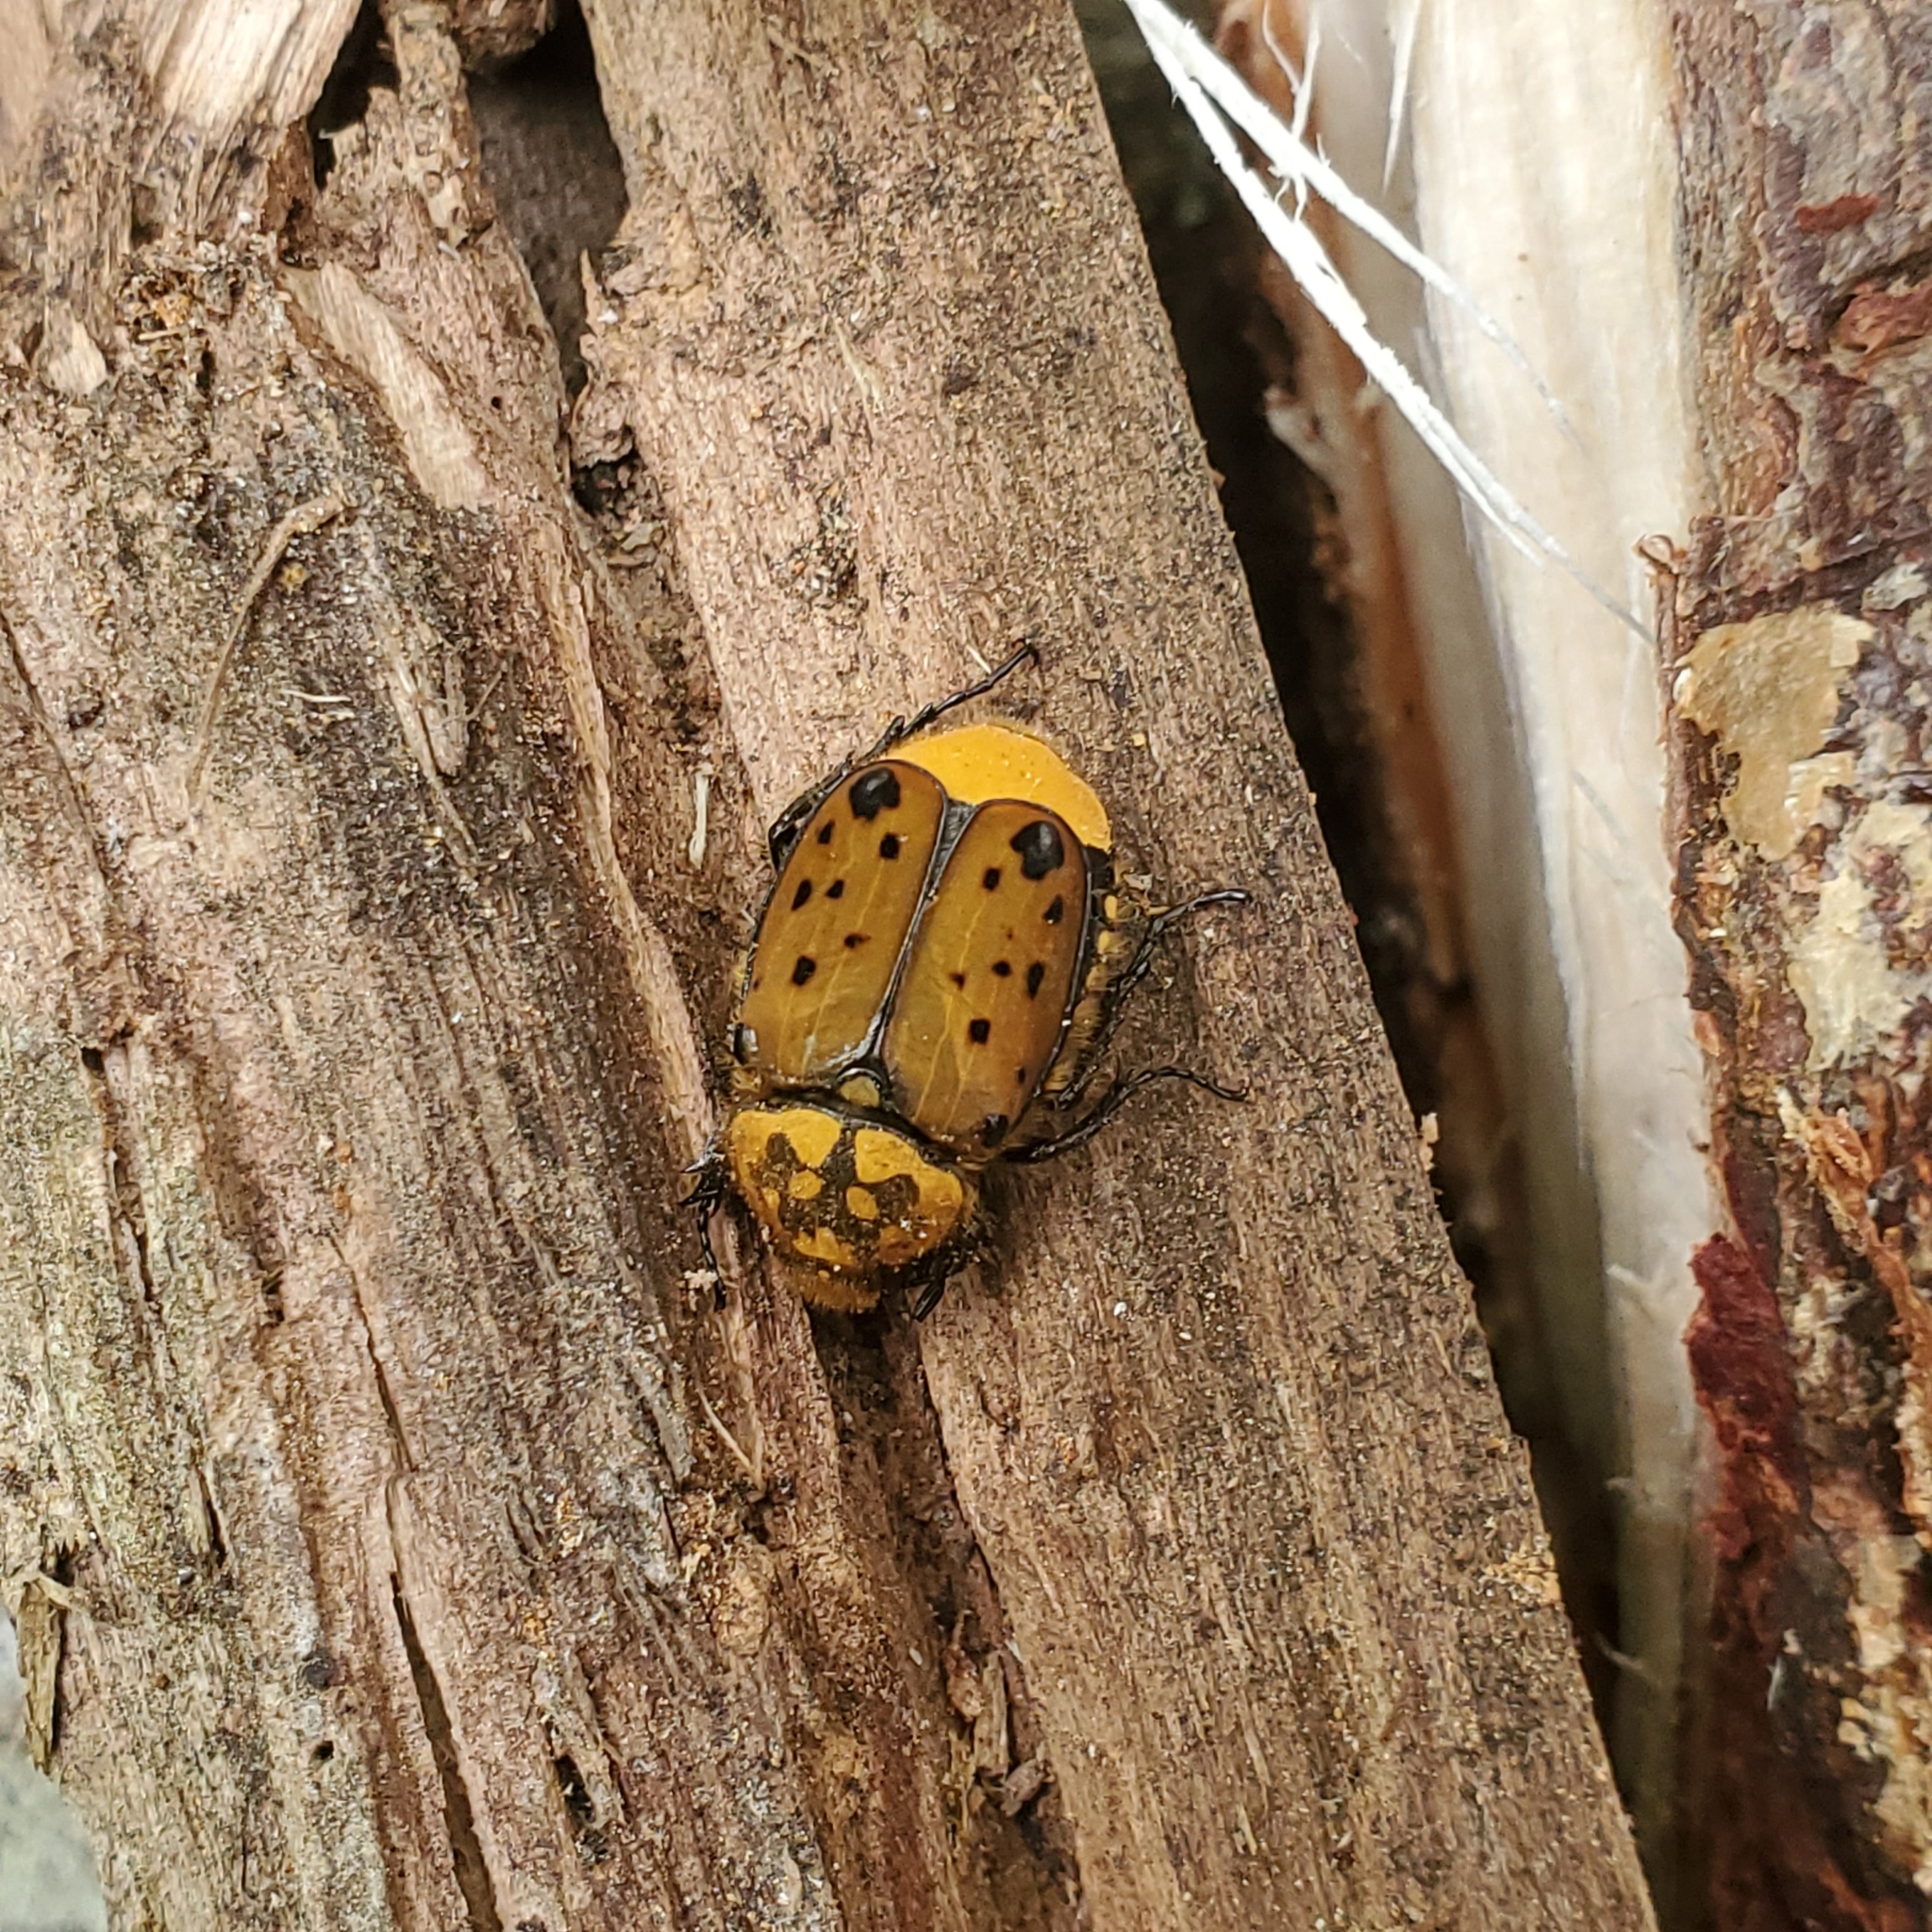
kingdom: Animalia
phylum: Arthropoda
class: Insecta
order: Coleoptera
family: Scarabaeidae
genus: Gnorimella
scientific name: Gnorimella maculosa
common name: Maculate flower beetle
